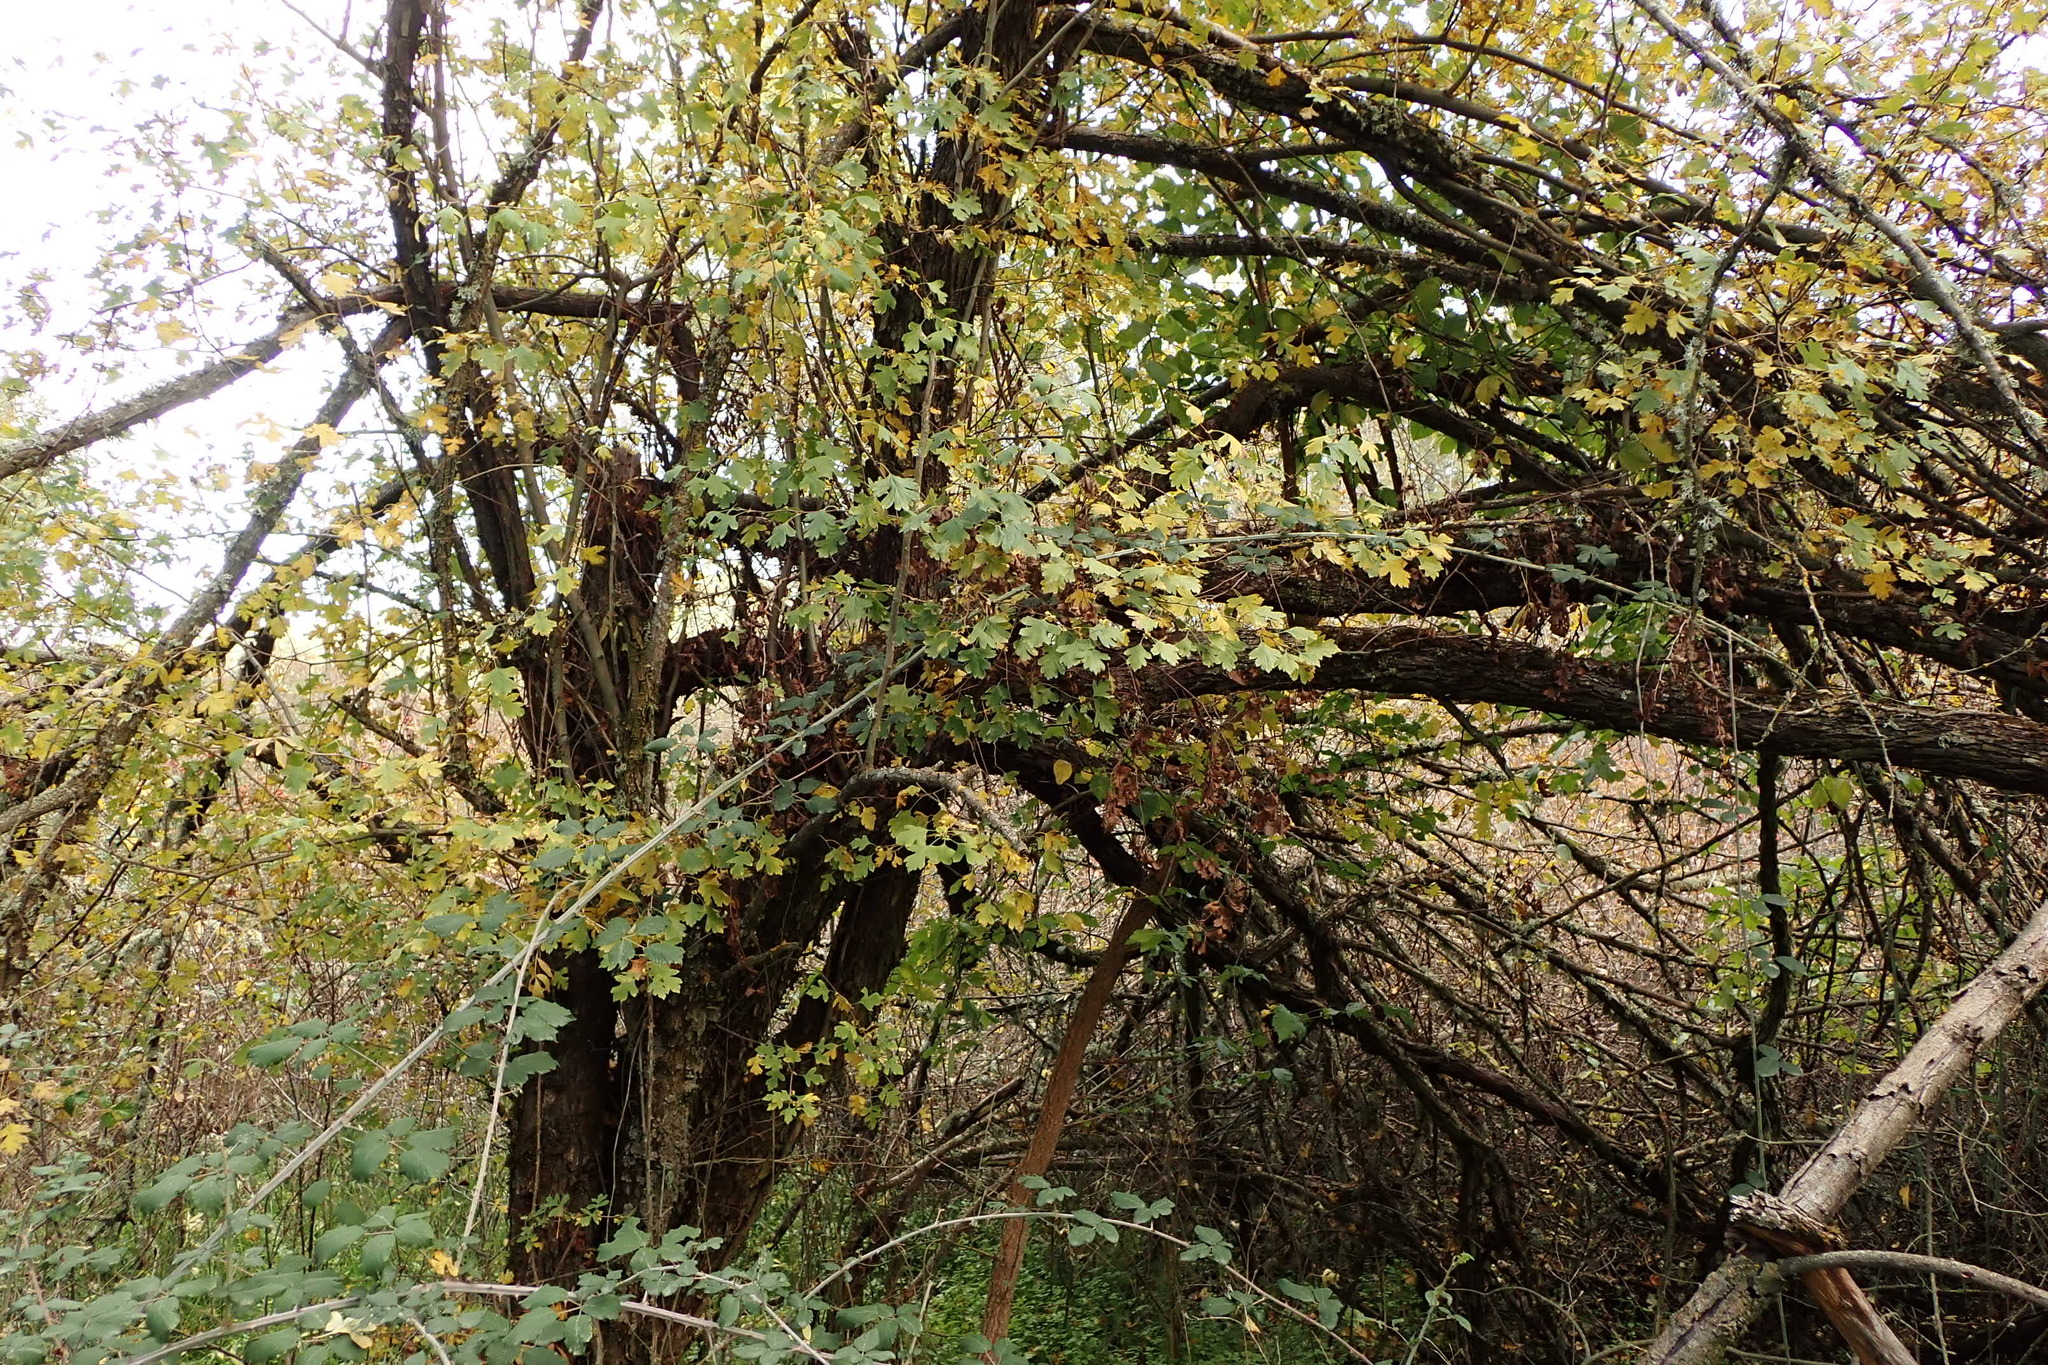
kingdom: Plantae
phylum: Tracheophyta
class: Magnoliopsida
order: Rosales
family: Rosaceae
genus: Crataegus
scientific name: Crataegus monogyna
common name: Hawthorn
